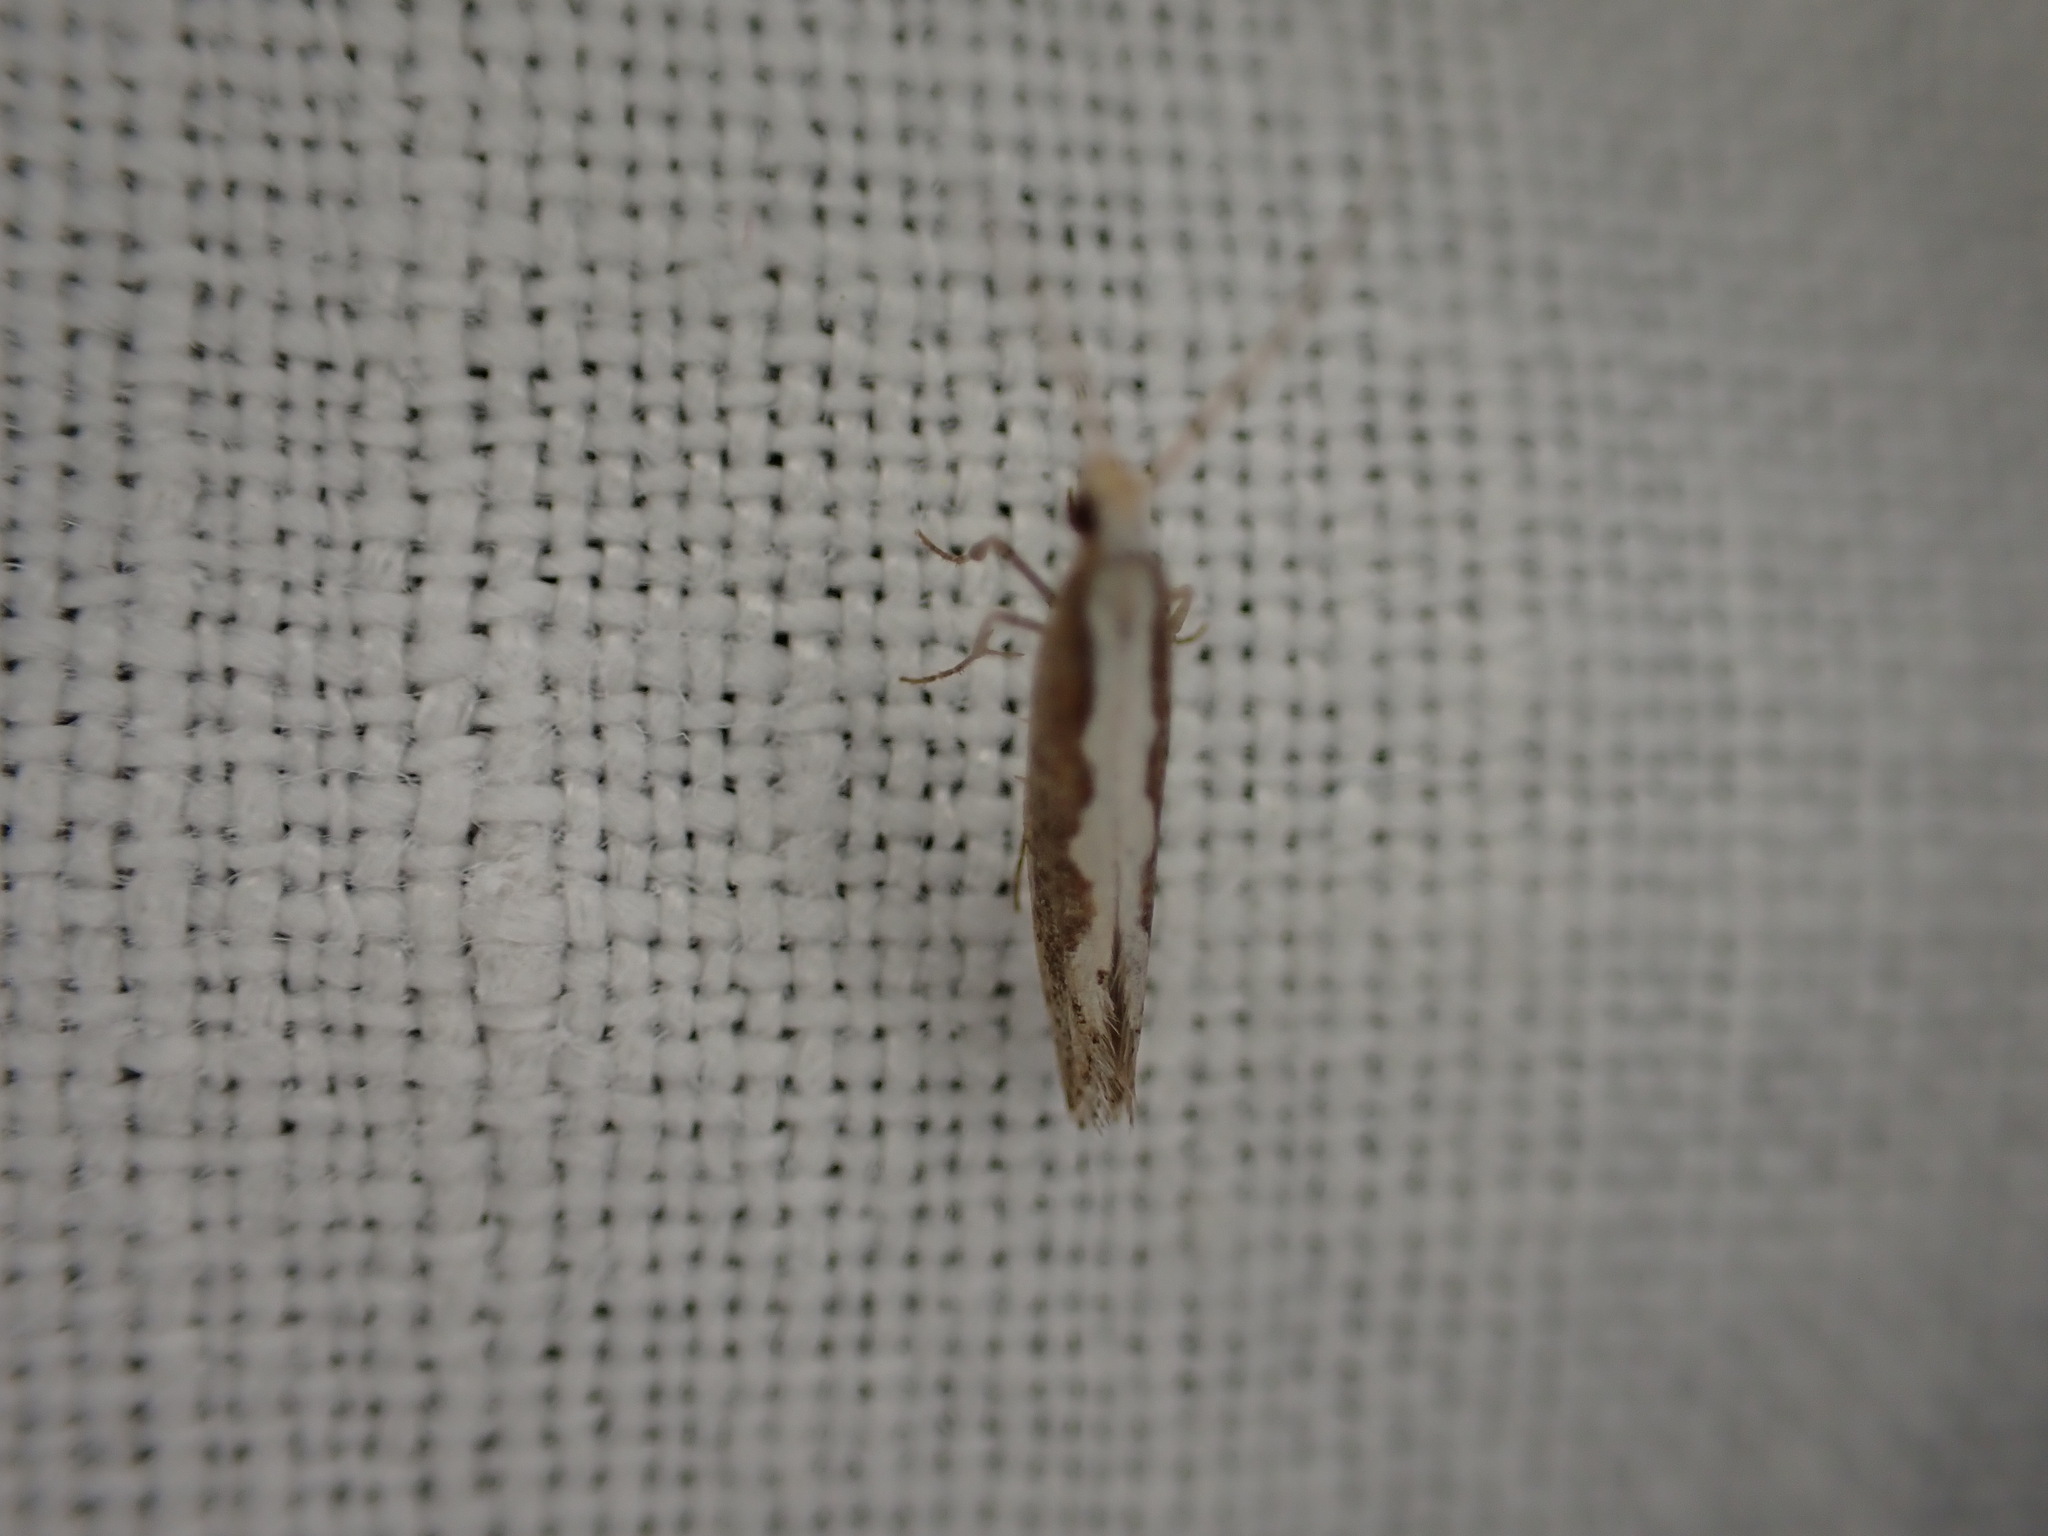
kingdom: Animalia
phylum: Arthropoda
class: Insecta
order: Lepidoptera
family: Plutellidae
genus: Plutella
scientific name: Plutella xylostella
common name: Diamond-back moth
